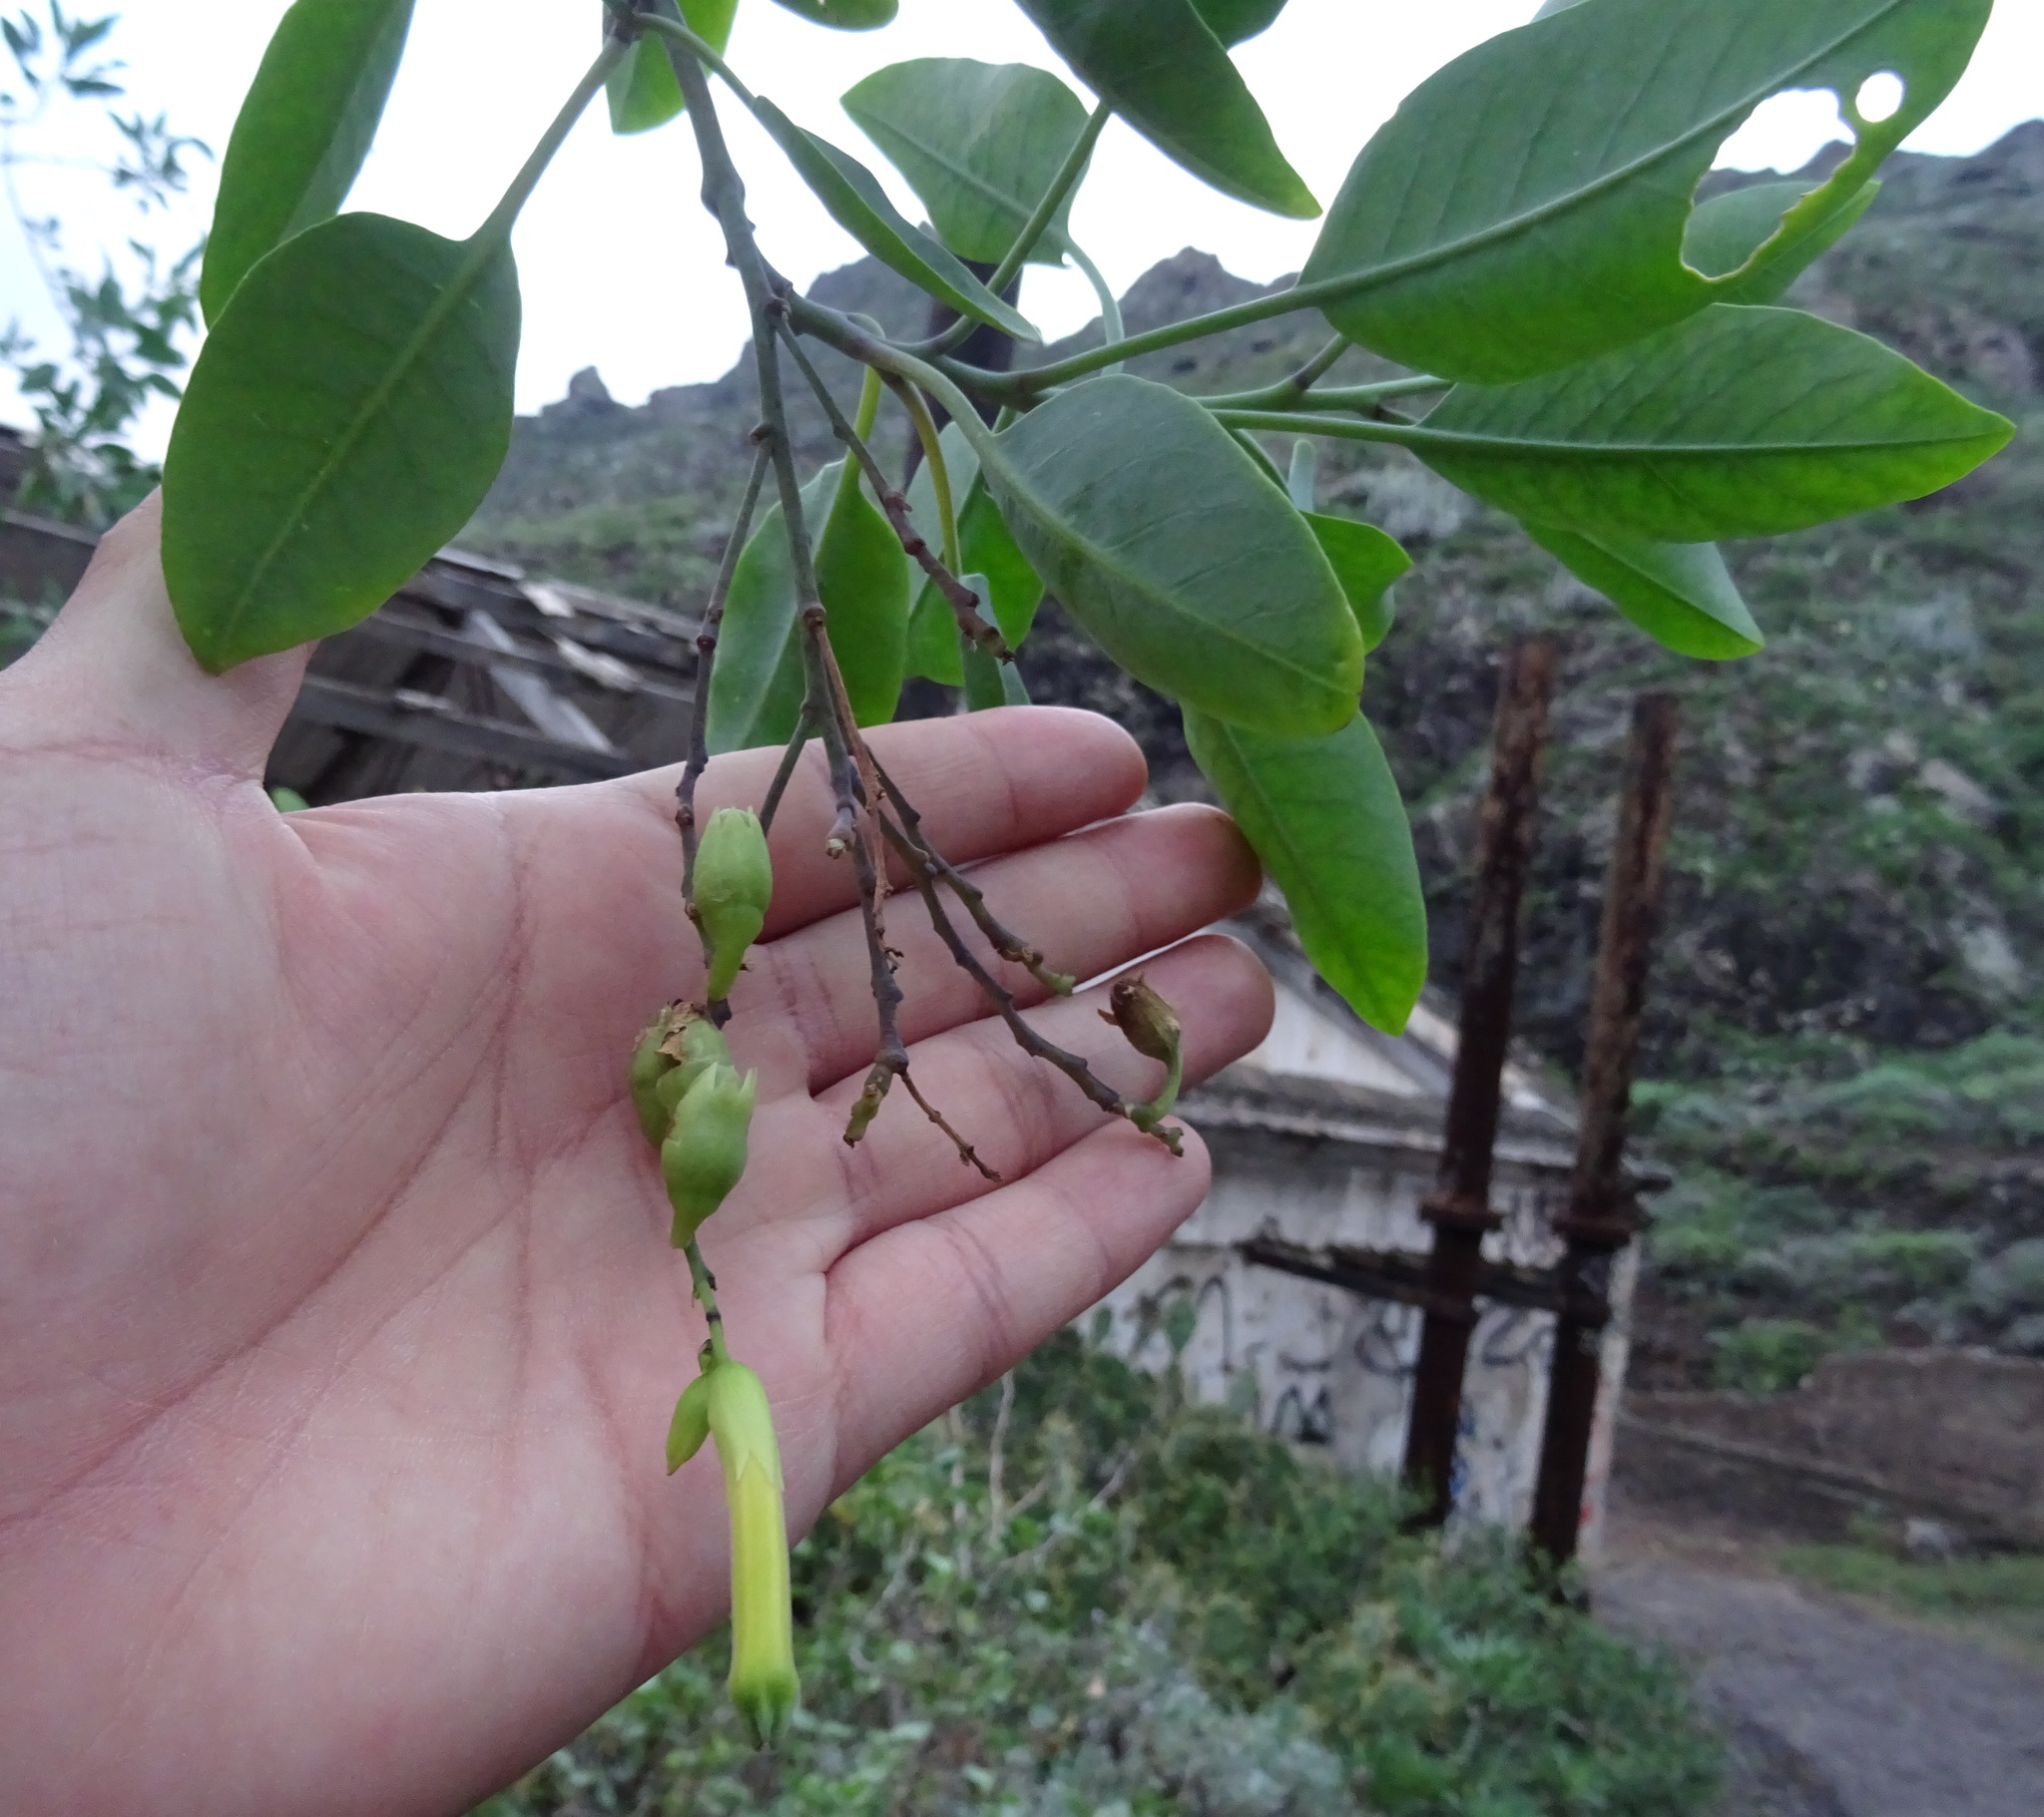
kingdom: Plantae
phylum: Tracheophyta
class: Magnoliopsida
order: Solanales
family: Solanaceae
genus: Nicotiana
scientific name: Nicotiana glauca
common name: Tree tobacco
